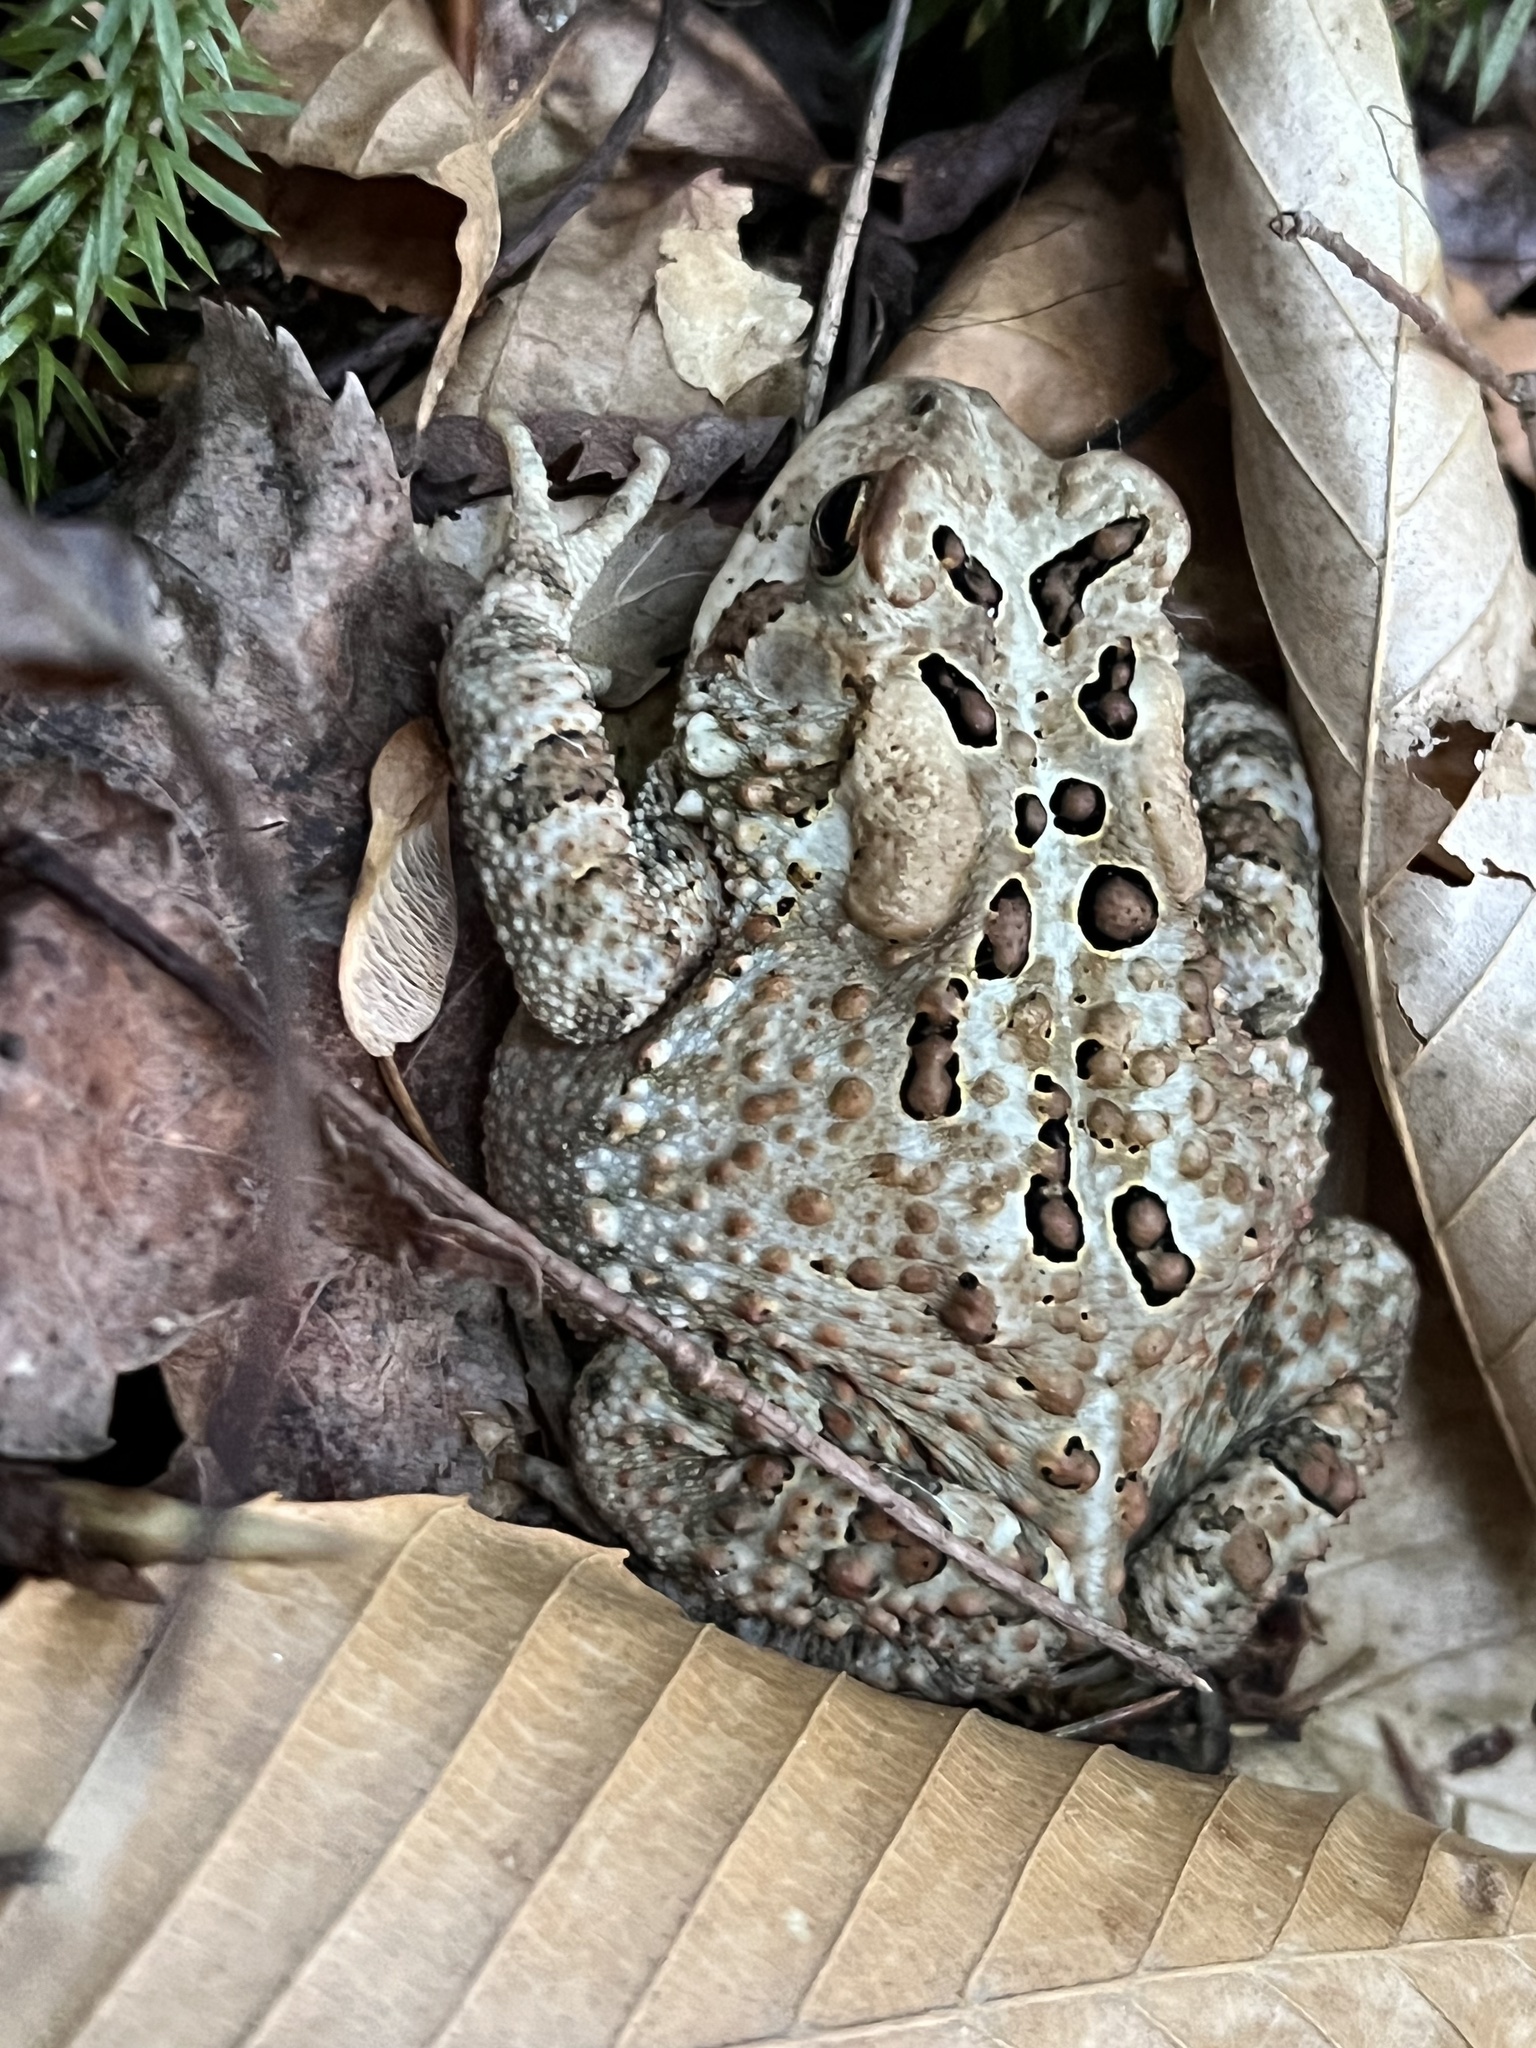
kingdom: Animalia
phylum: Chordata
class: Amphibia
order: Anura
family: Bufonidae
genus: Anaxyrus
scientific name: Anaxyrus americanus
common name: American toad
